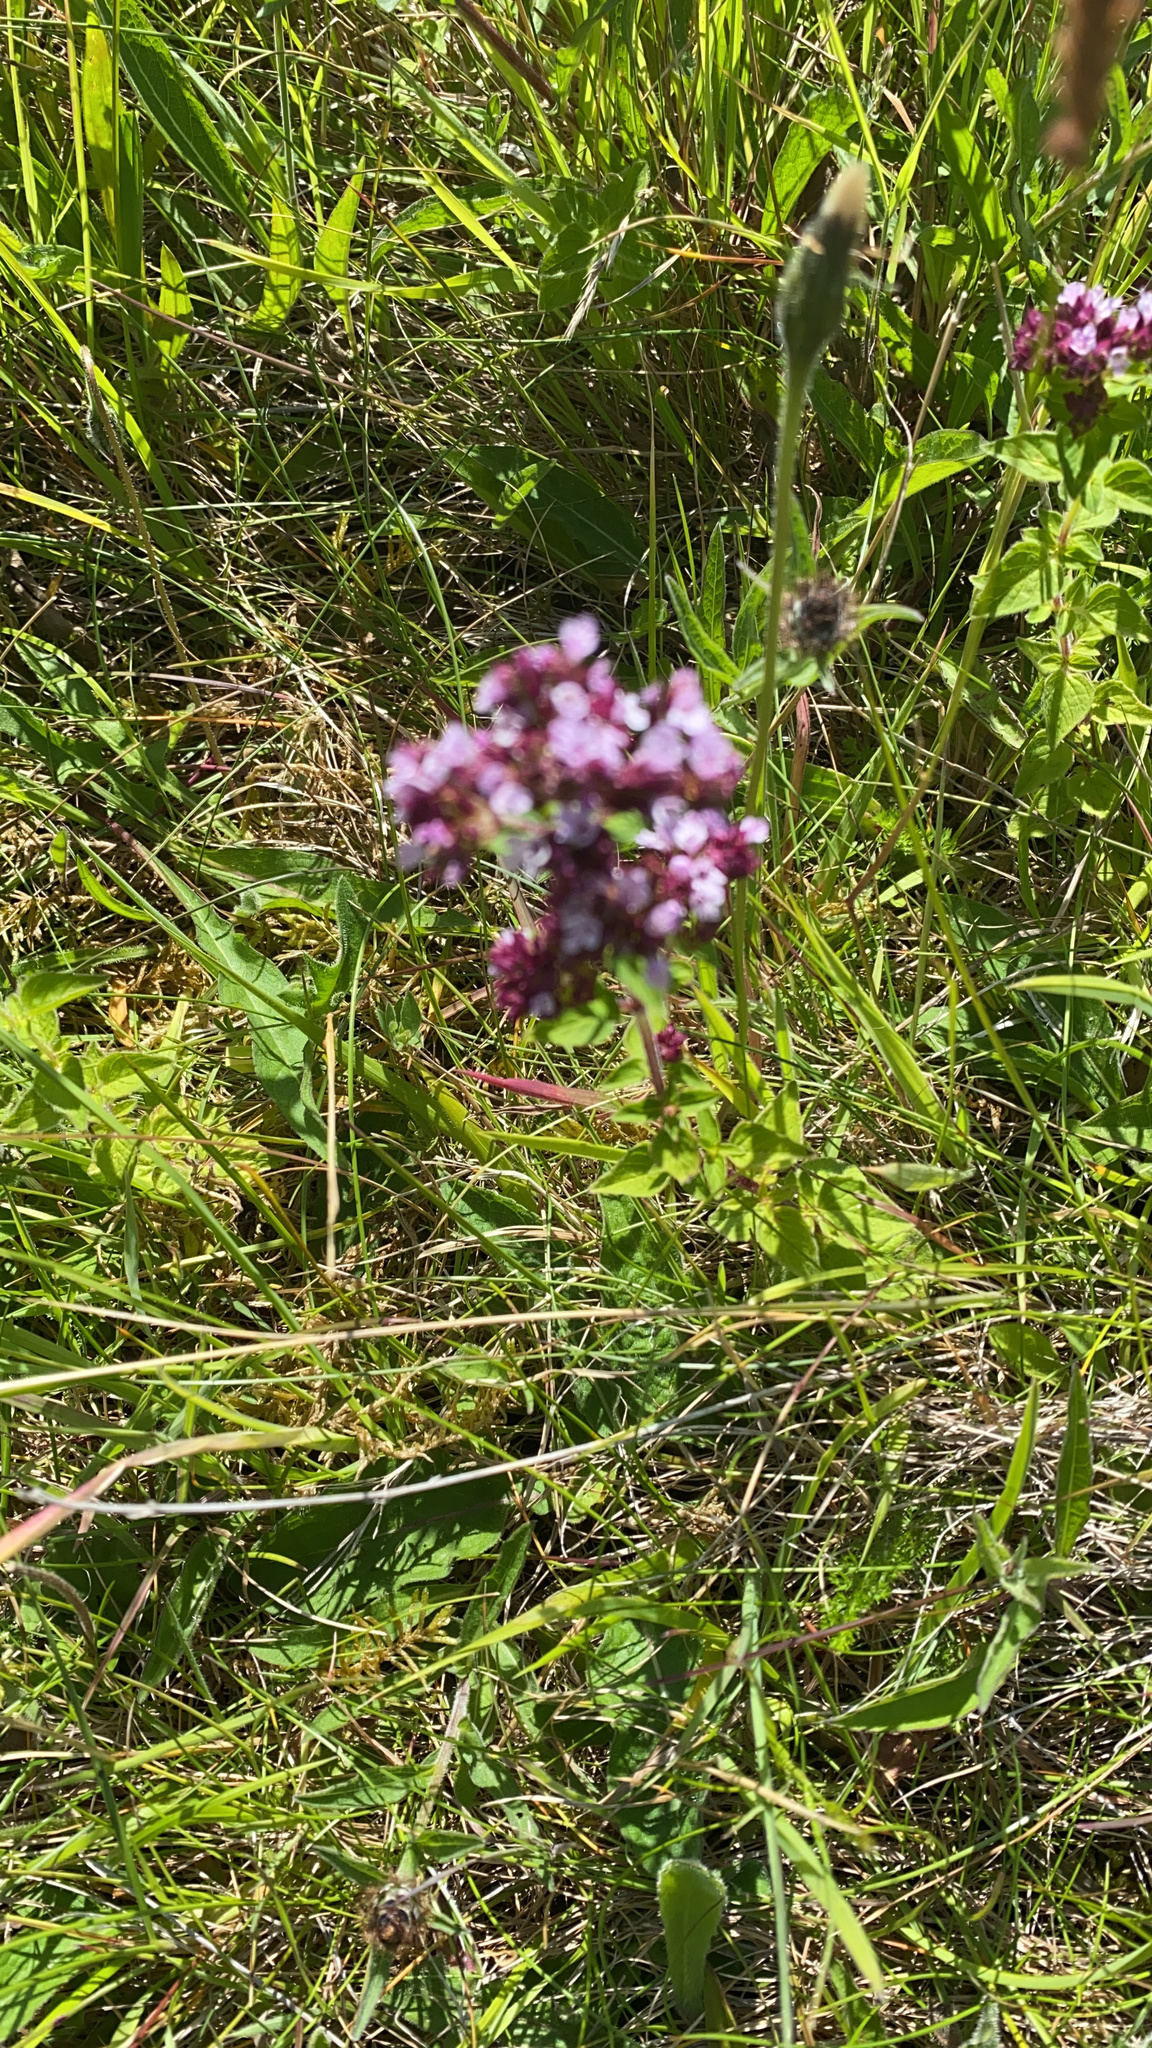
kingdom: Plantae
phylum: Tracheophyta
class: Magnoliopsida
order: Lamiales
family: Lamiaceae
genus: Origanum
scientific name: Origanum vulgare
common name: Wild marjoram
